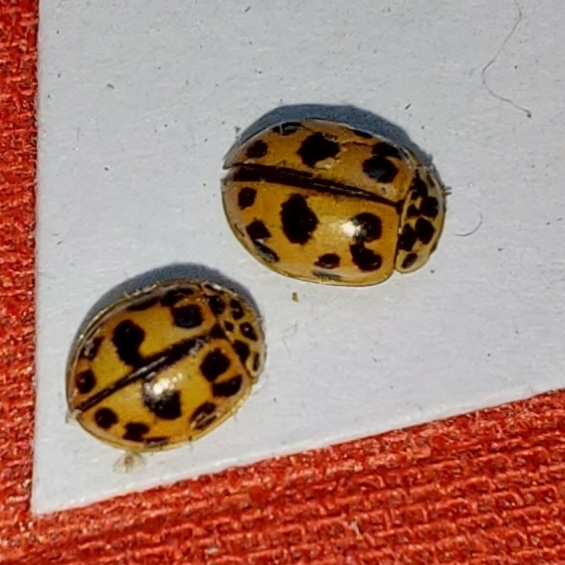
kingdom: Animalia
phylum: Arthropoda
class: Insecta
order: Coleoptera
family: Coccinellidae
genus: Oenopia
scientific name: Oenopia conglobata
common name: Ladybird beetle
